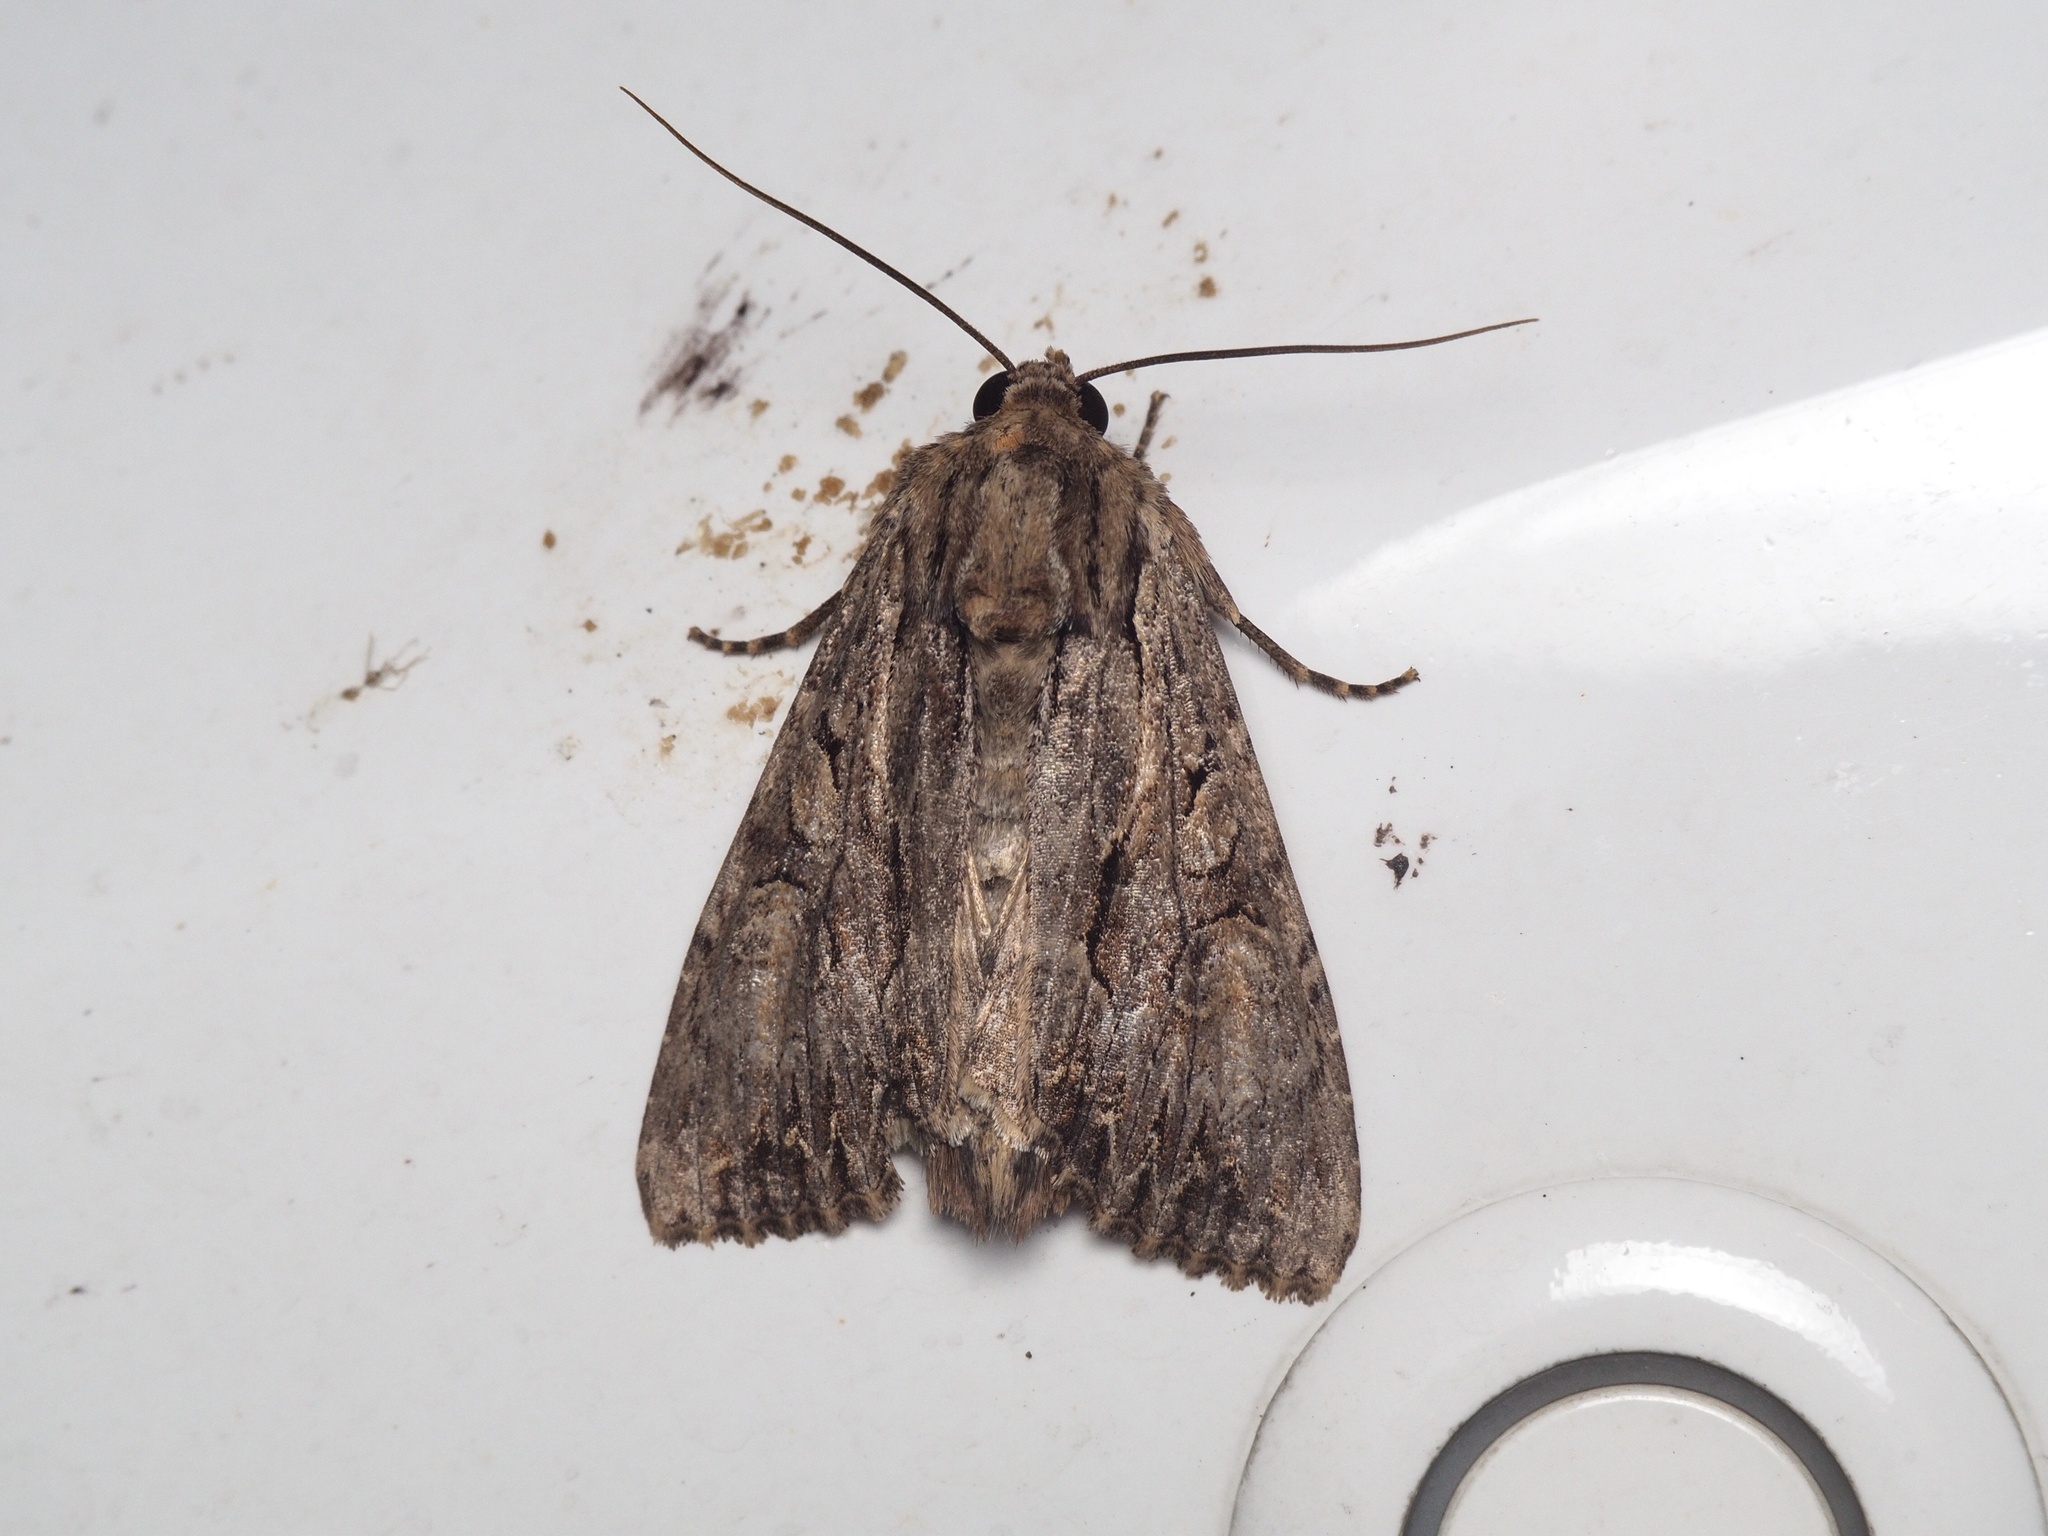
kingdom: Animalia
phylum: Arthropoda
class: Insecta
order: Lepidoptera
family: Noctuidae
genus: Apamea
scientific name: Apamea monoglypha
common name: Dark arches
